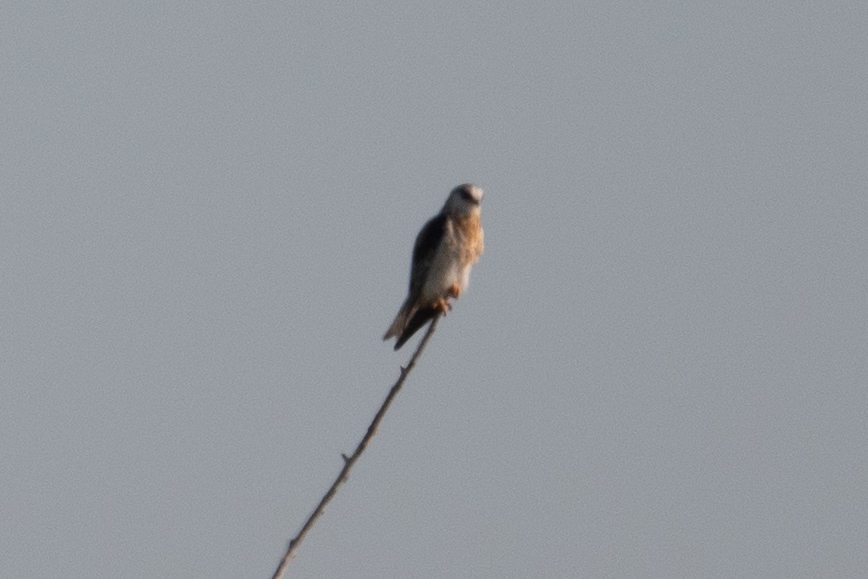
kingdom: Animalia
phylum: Chordata
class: Aves
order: Accipitriformes
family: Accipitridae
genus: Elanus
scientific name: Elanus leucurus
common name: White-tailed kite
